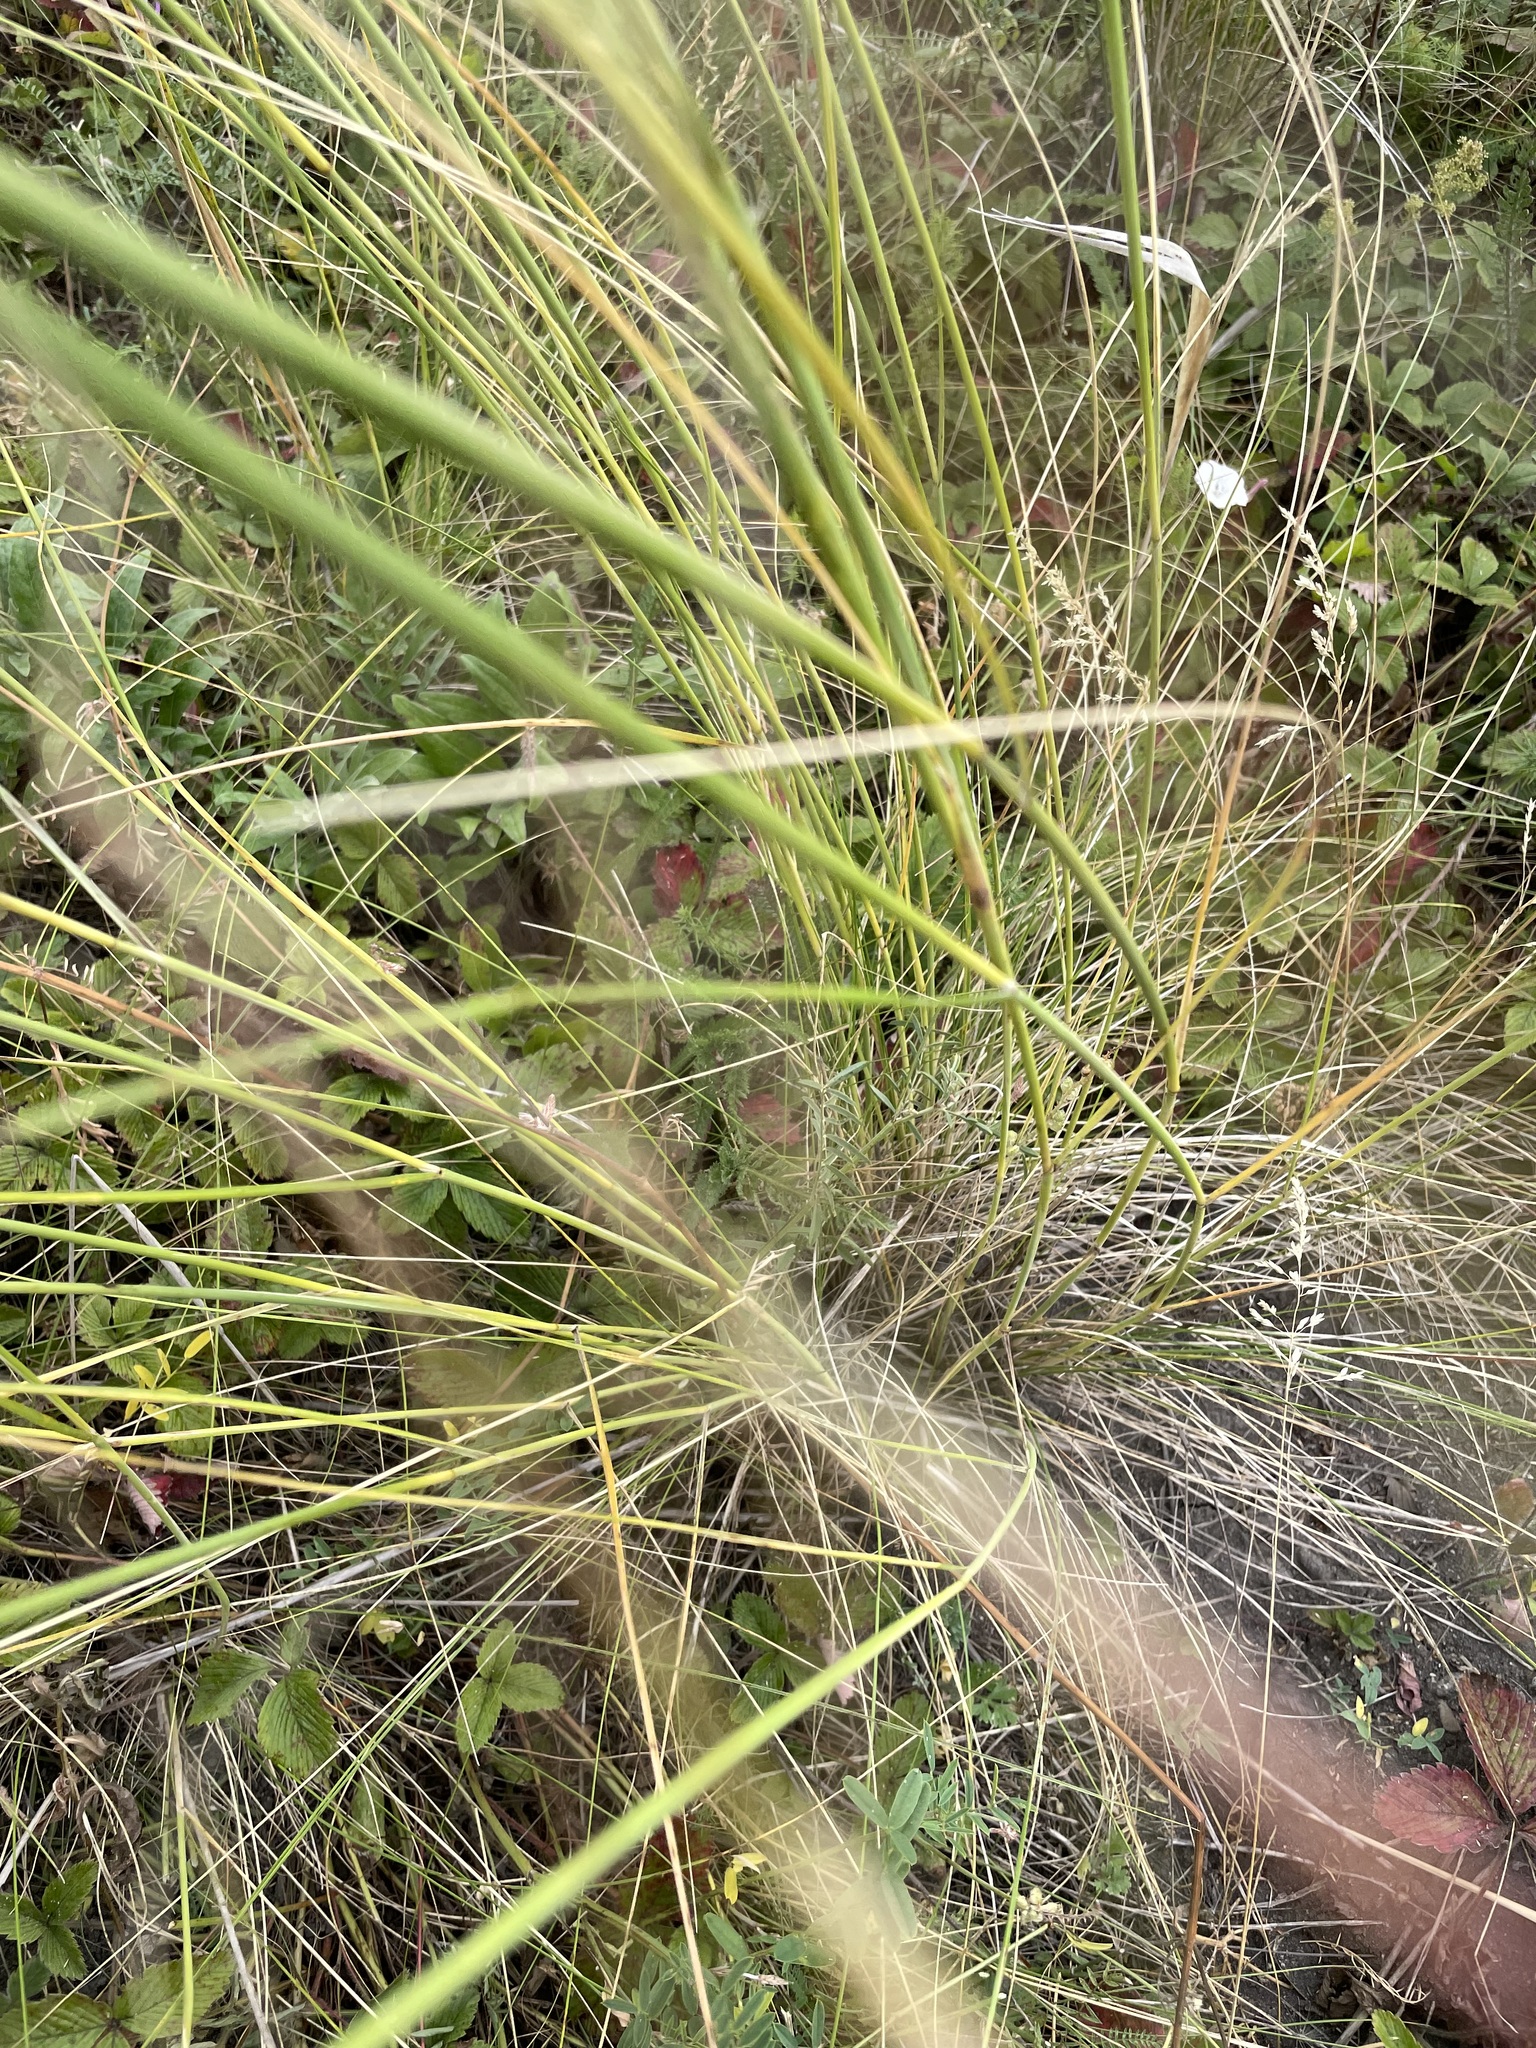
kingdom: Plantae
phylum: Tracheophyta
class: Liliopsida
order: Poales
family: Poaceae
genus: Stipa
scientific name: Stipa capillata
